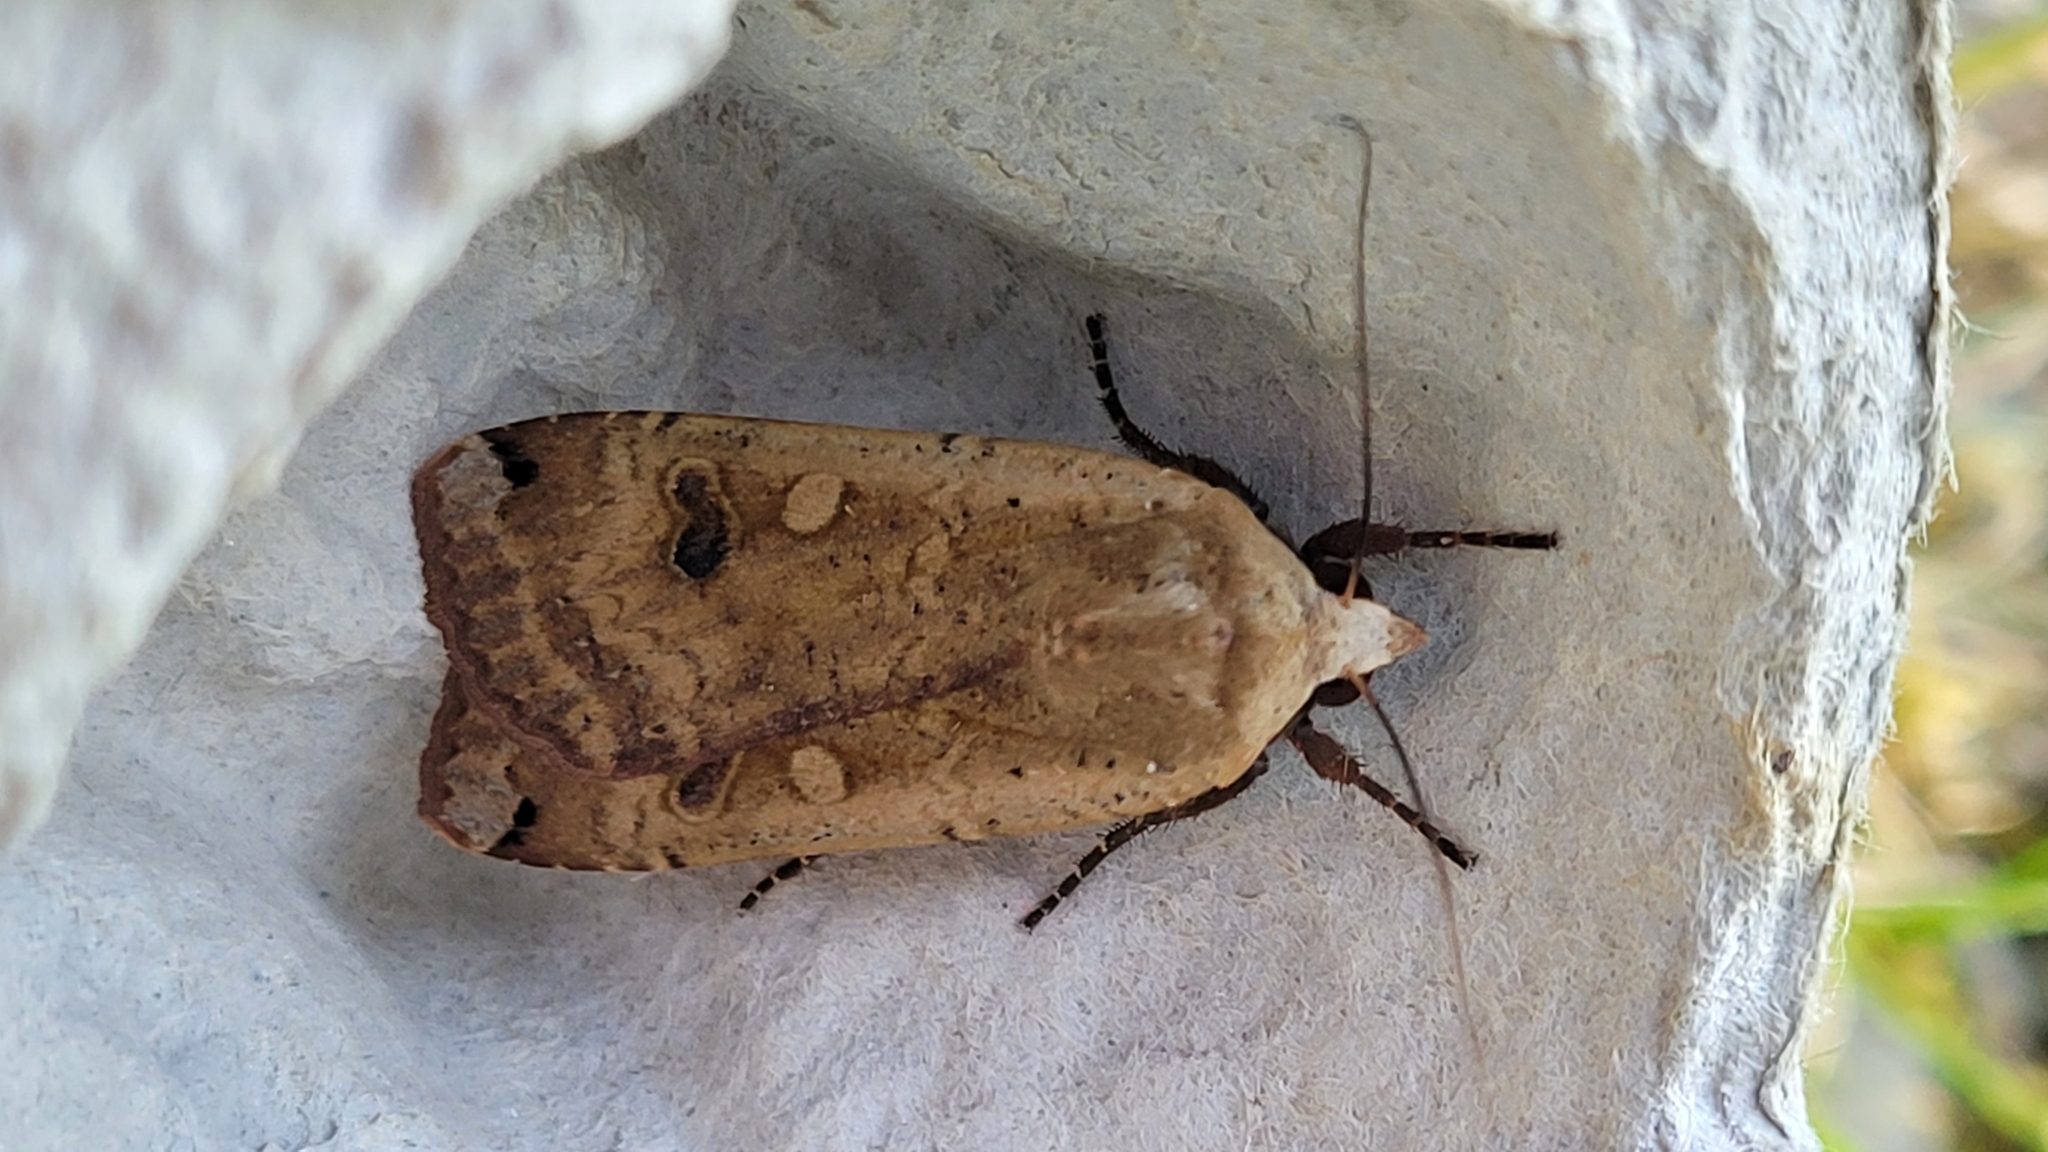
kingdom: Animalia
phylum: Arthropoda
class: Insecta
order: Lepidoptera
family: Noctuidae
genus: Noctua
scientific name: Noctua pronuba
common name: Large yellow underwing
